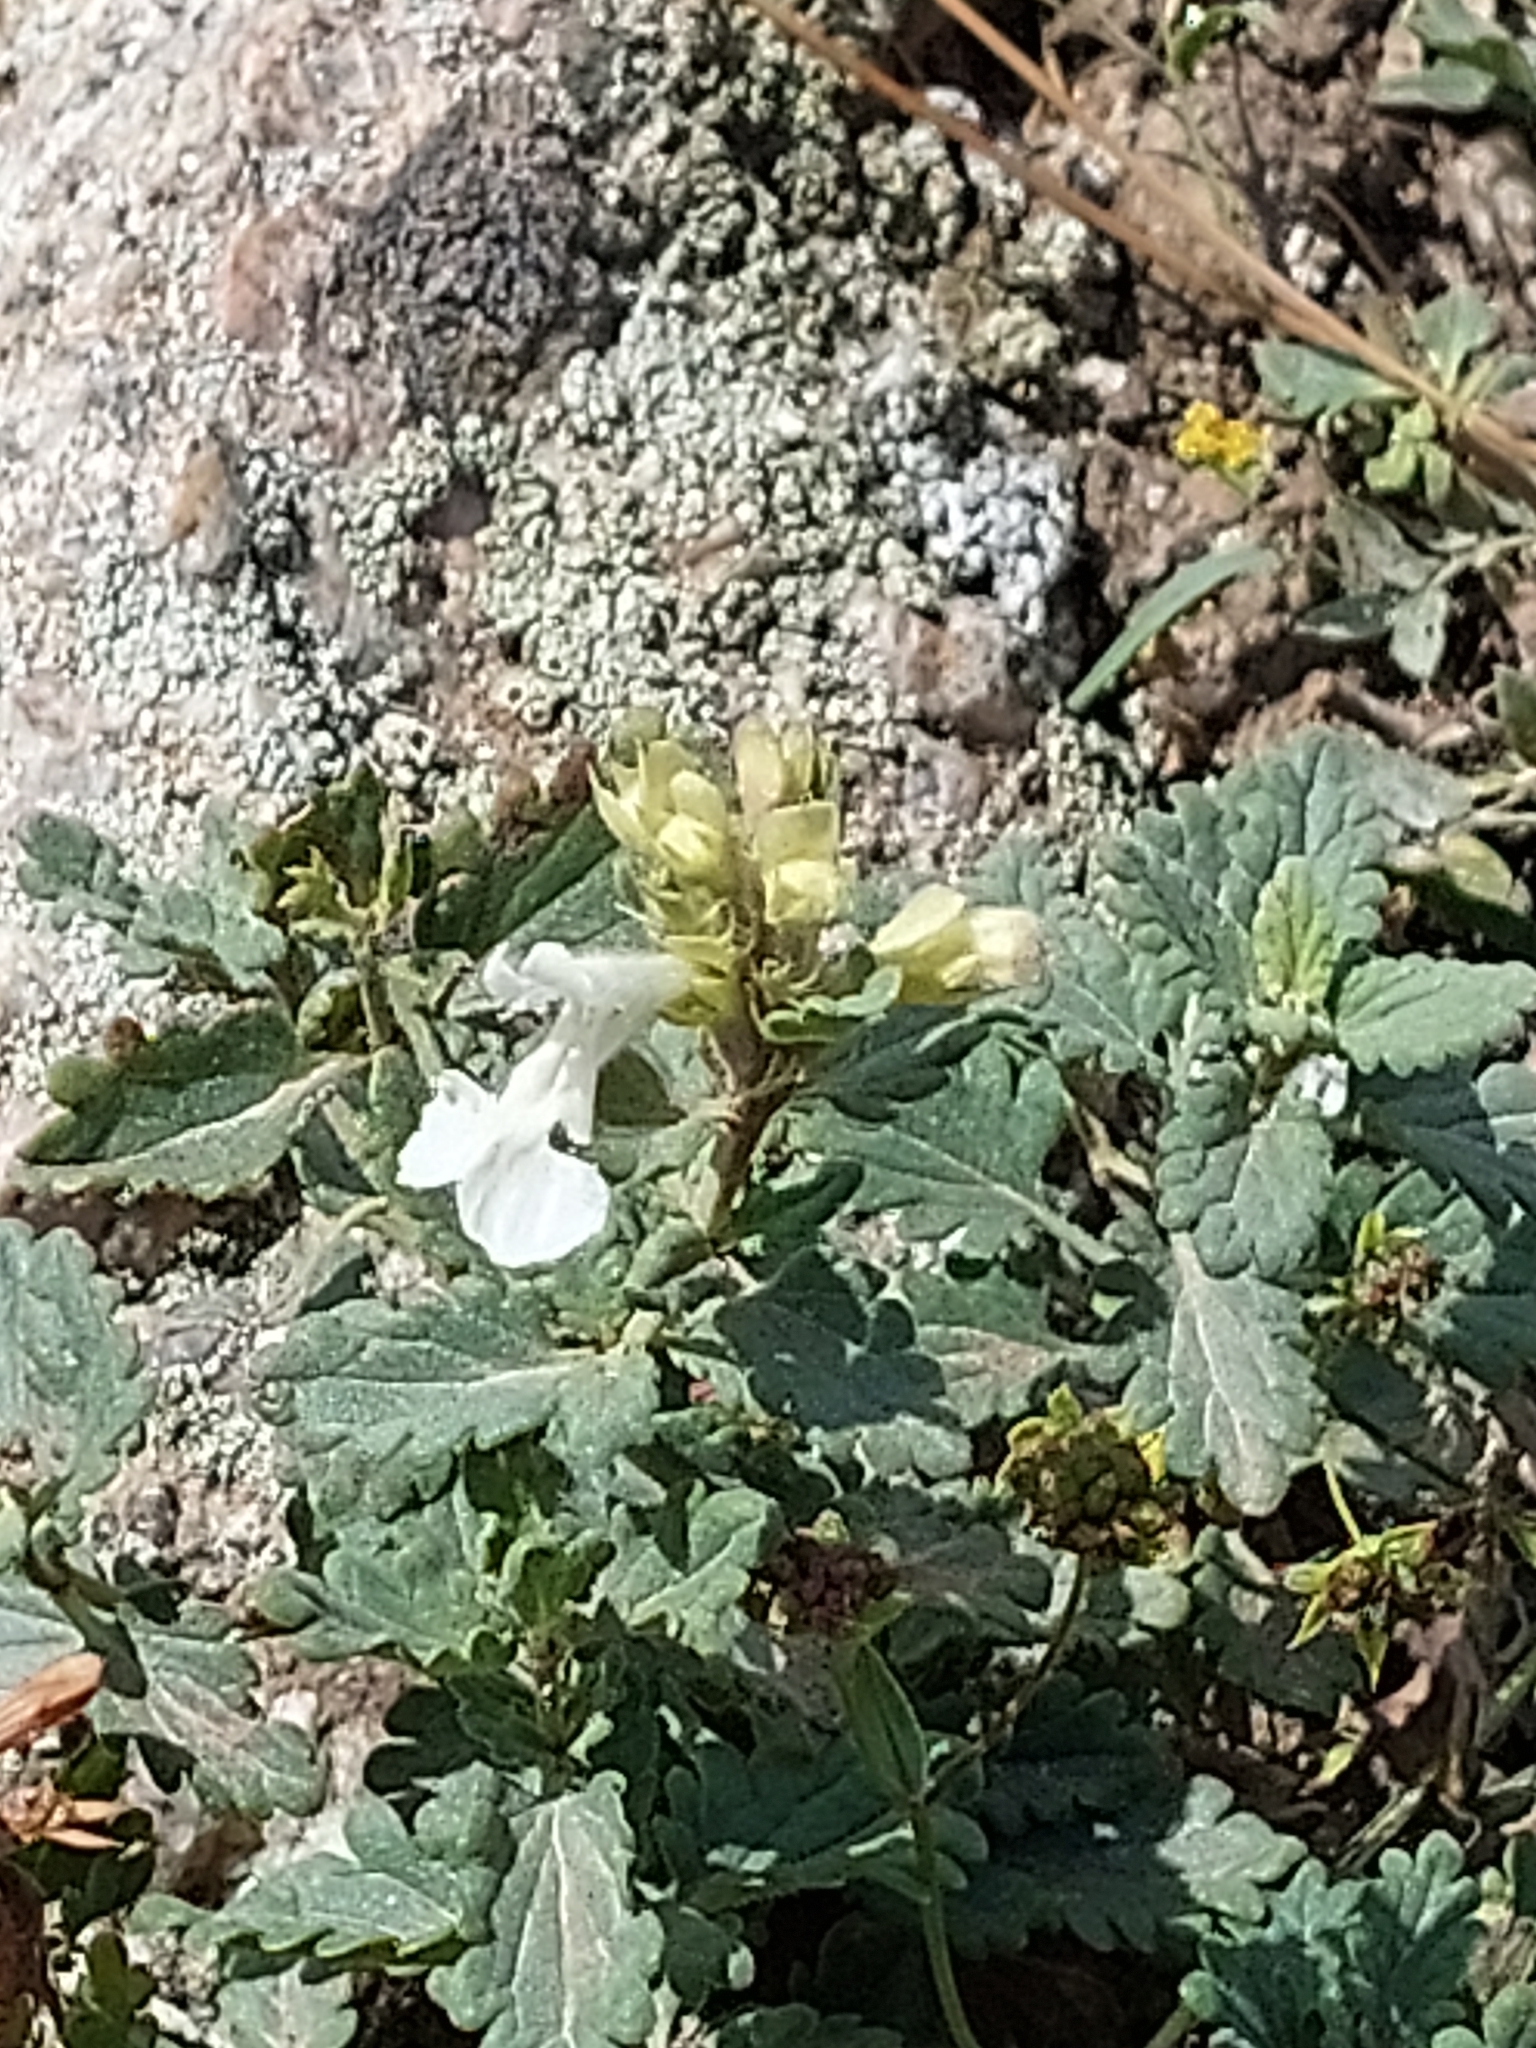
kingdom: Plantae
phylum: Tracheophyta
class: Magnoliopsida
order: Lamiales
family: Lamiaceae
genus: Dracocephalum
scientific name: Dracocephalum nodulosum
